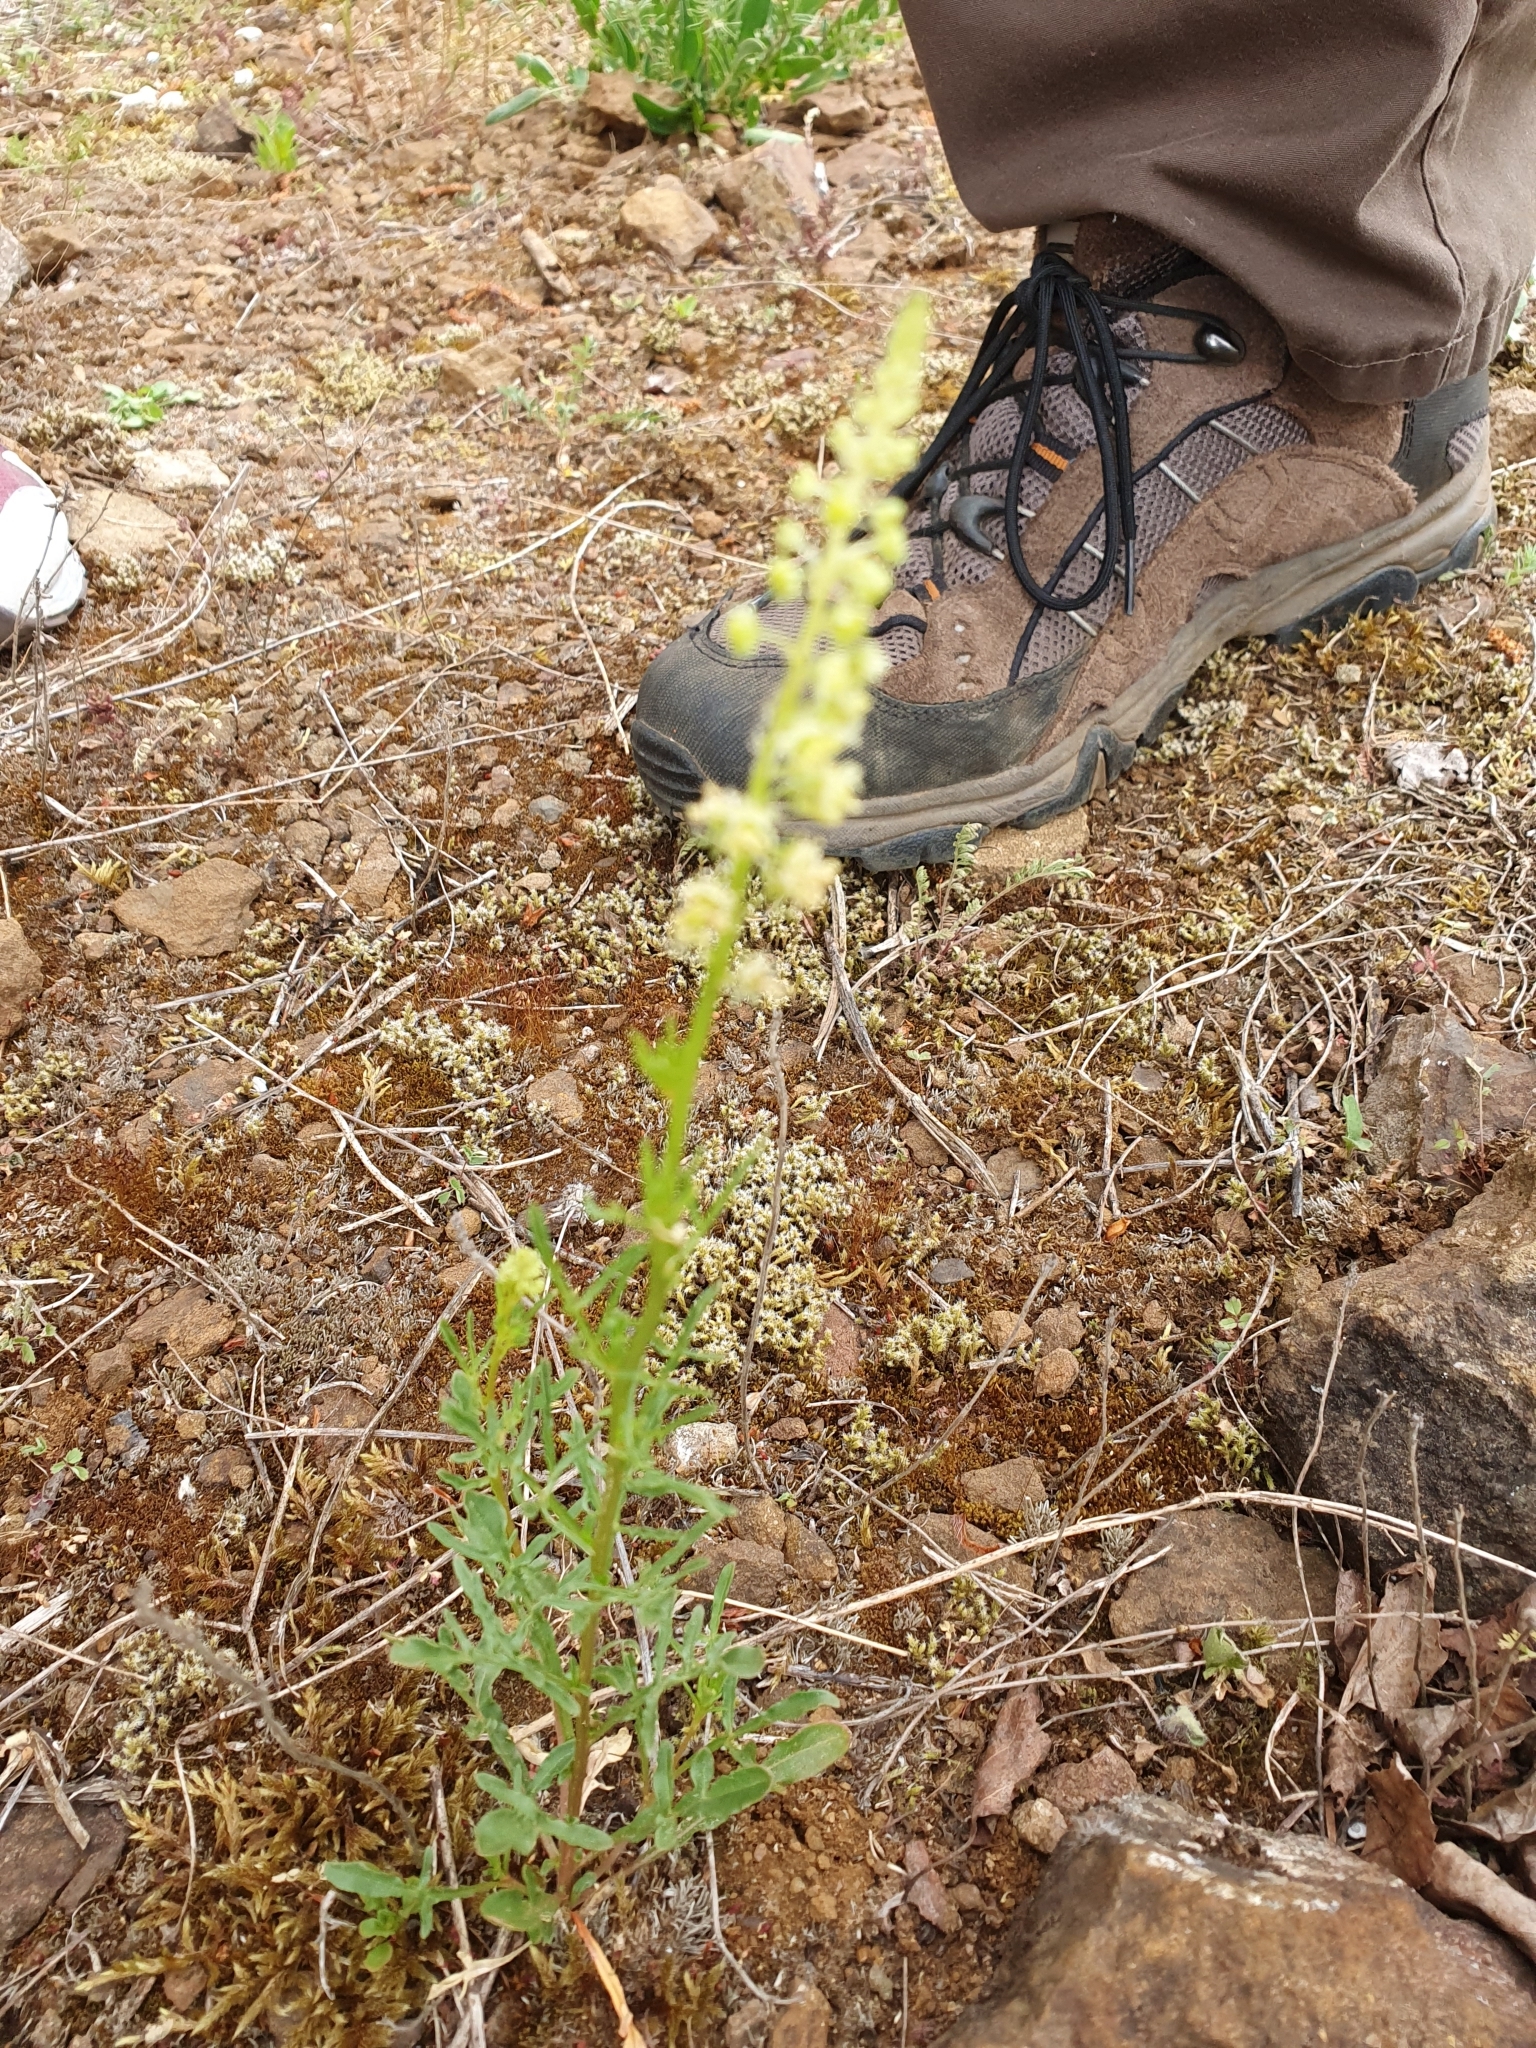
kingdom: Plantae
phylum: Tracheophyta
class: Magnoliopsida
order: Brassicales
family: Resedaceae
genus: Reseda
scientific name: Reseda lutea
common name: Wild mignonette
